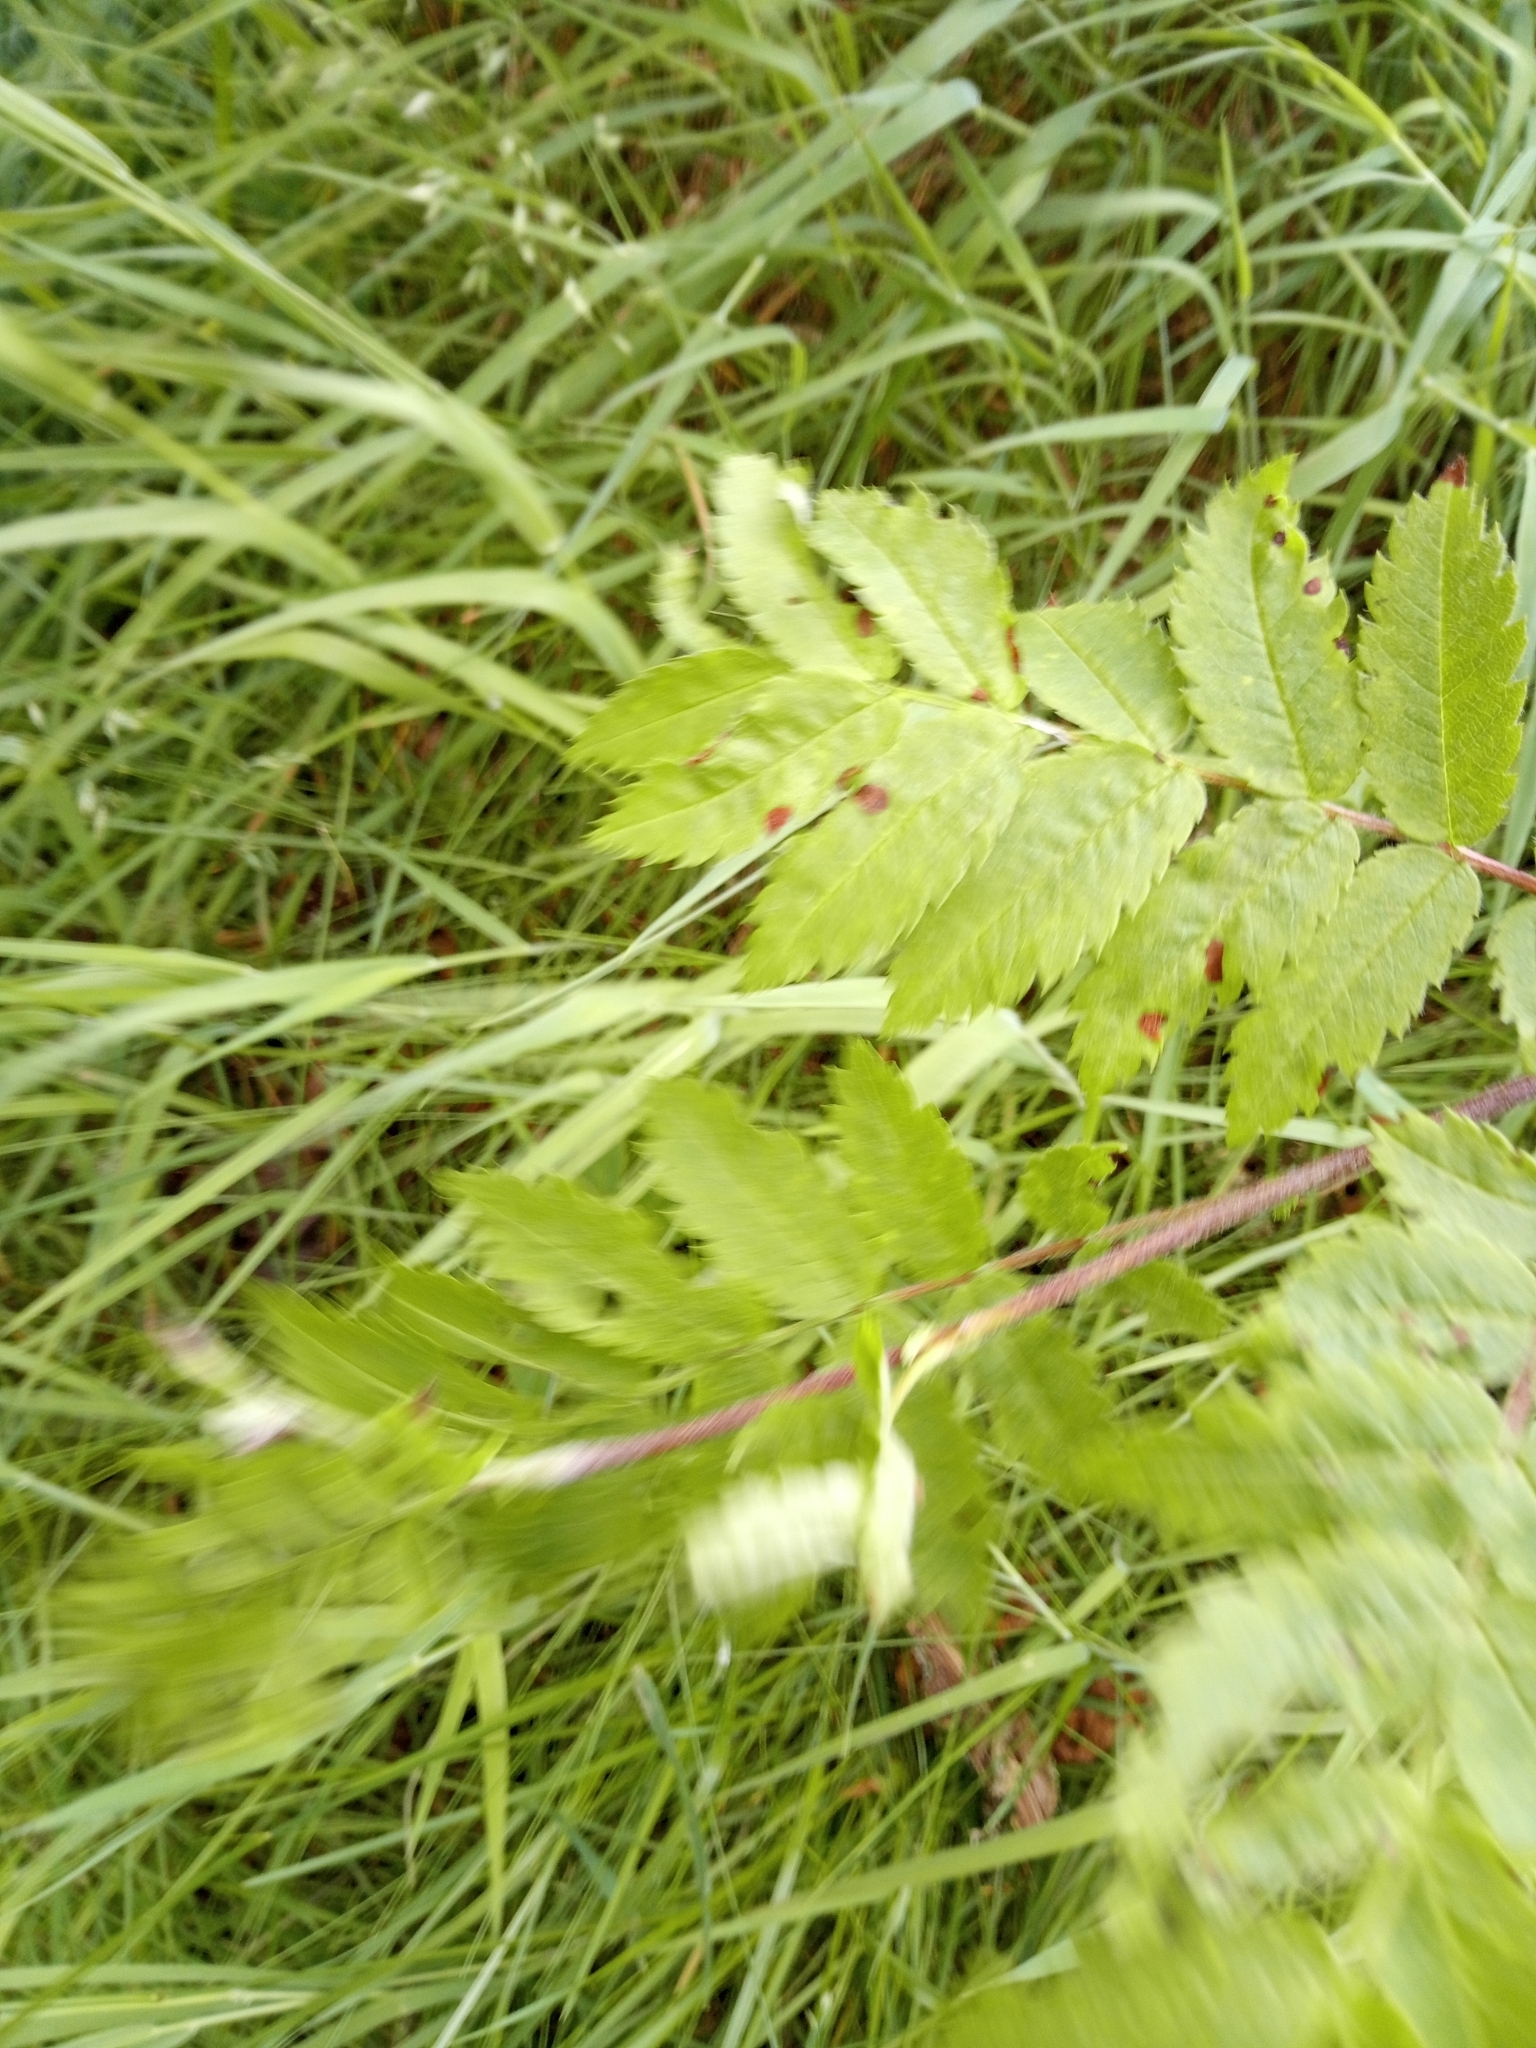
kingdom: Plantae
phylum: Tracheophyta
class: Magnoliopsida
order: Rosales
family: Rosaceae
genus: Sorbus
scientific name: Sorbus aucuparia
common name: Rowan
